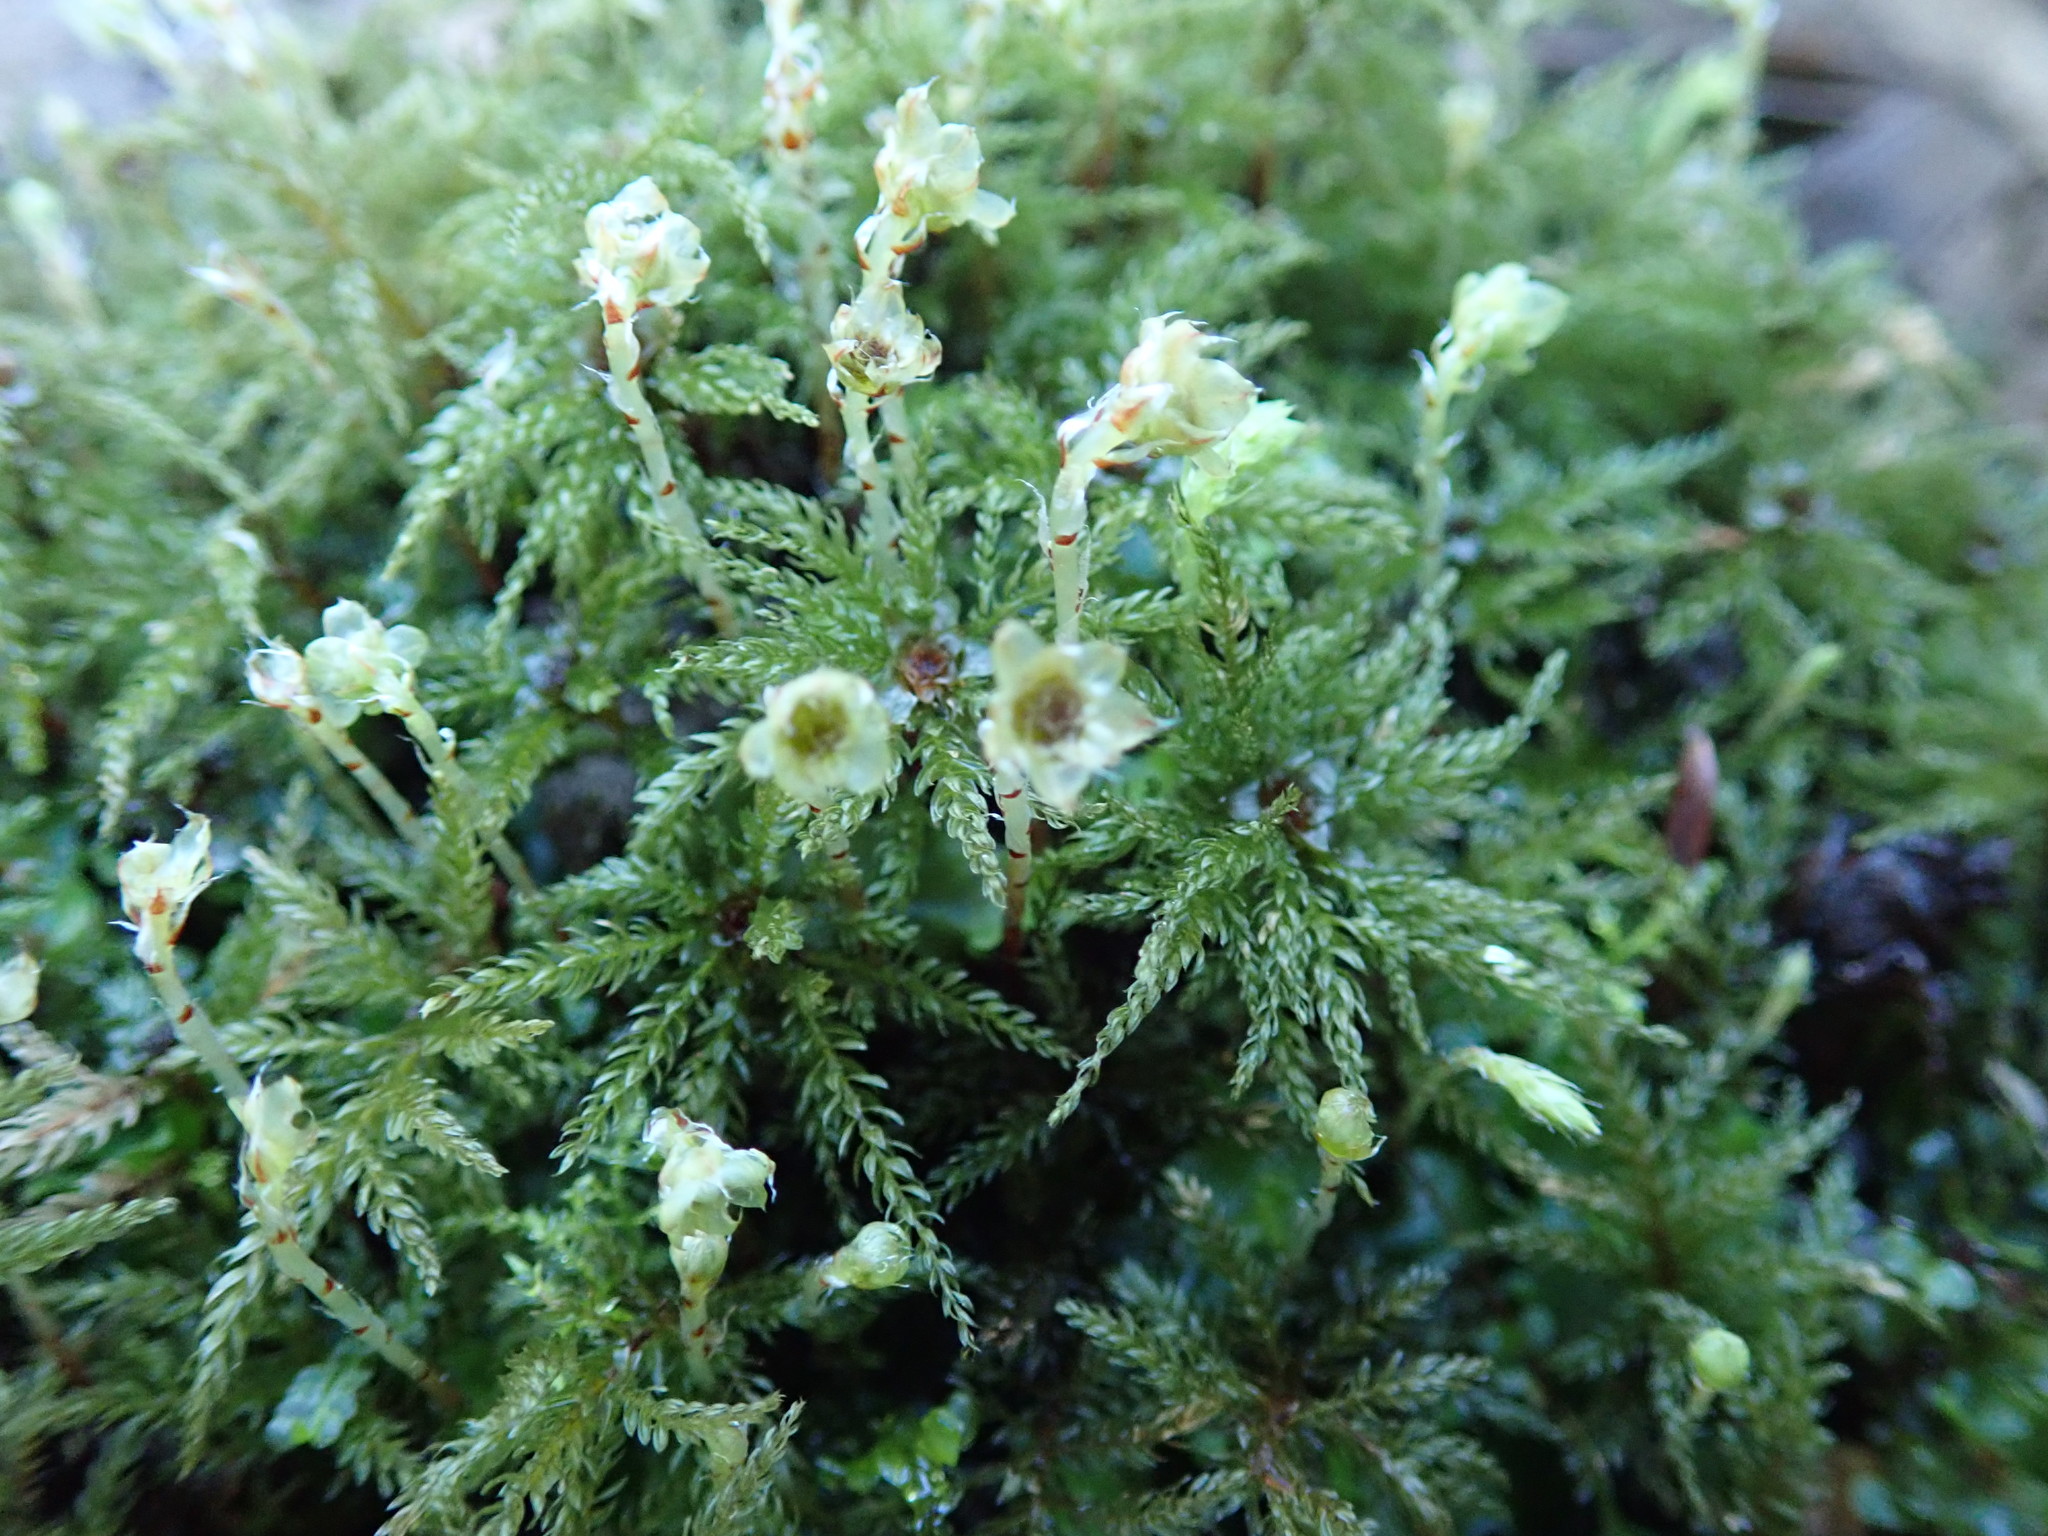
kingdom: Plantae
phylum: Bryophyta
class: Bryopsida
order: Bryales
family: Mniaceae
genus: Leucolepis
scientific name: Leucolepis acanthoneura
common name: Leucolepis umbrella moss
